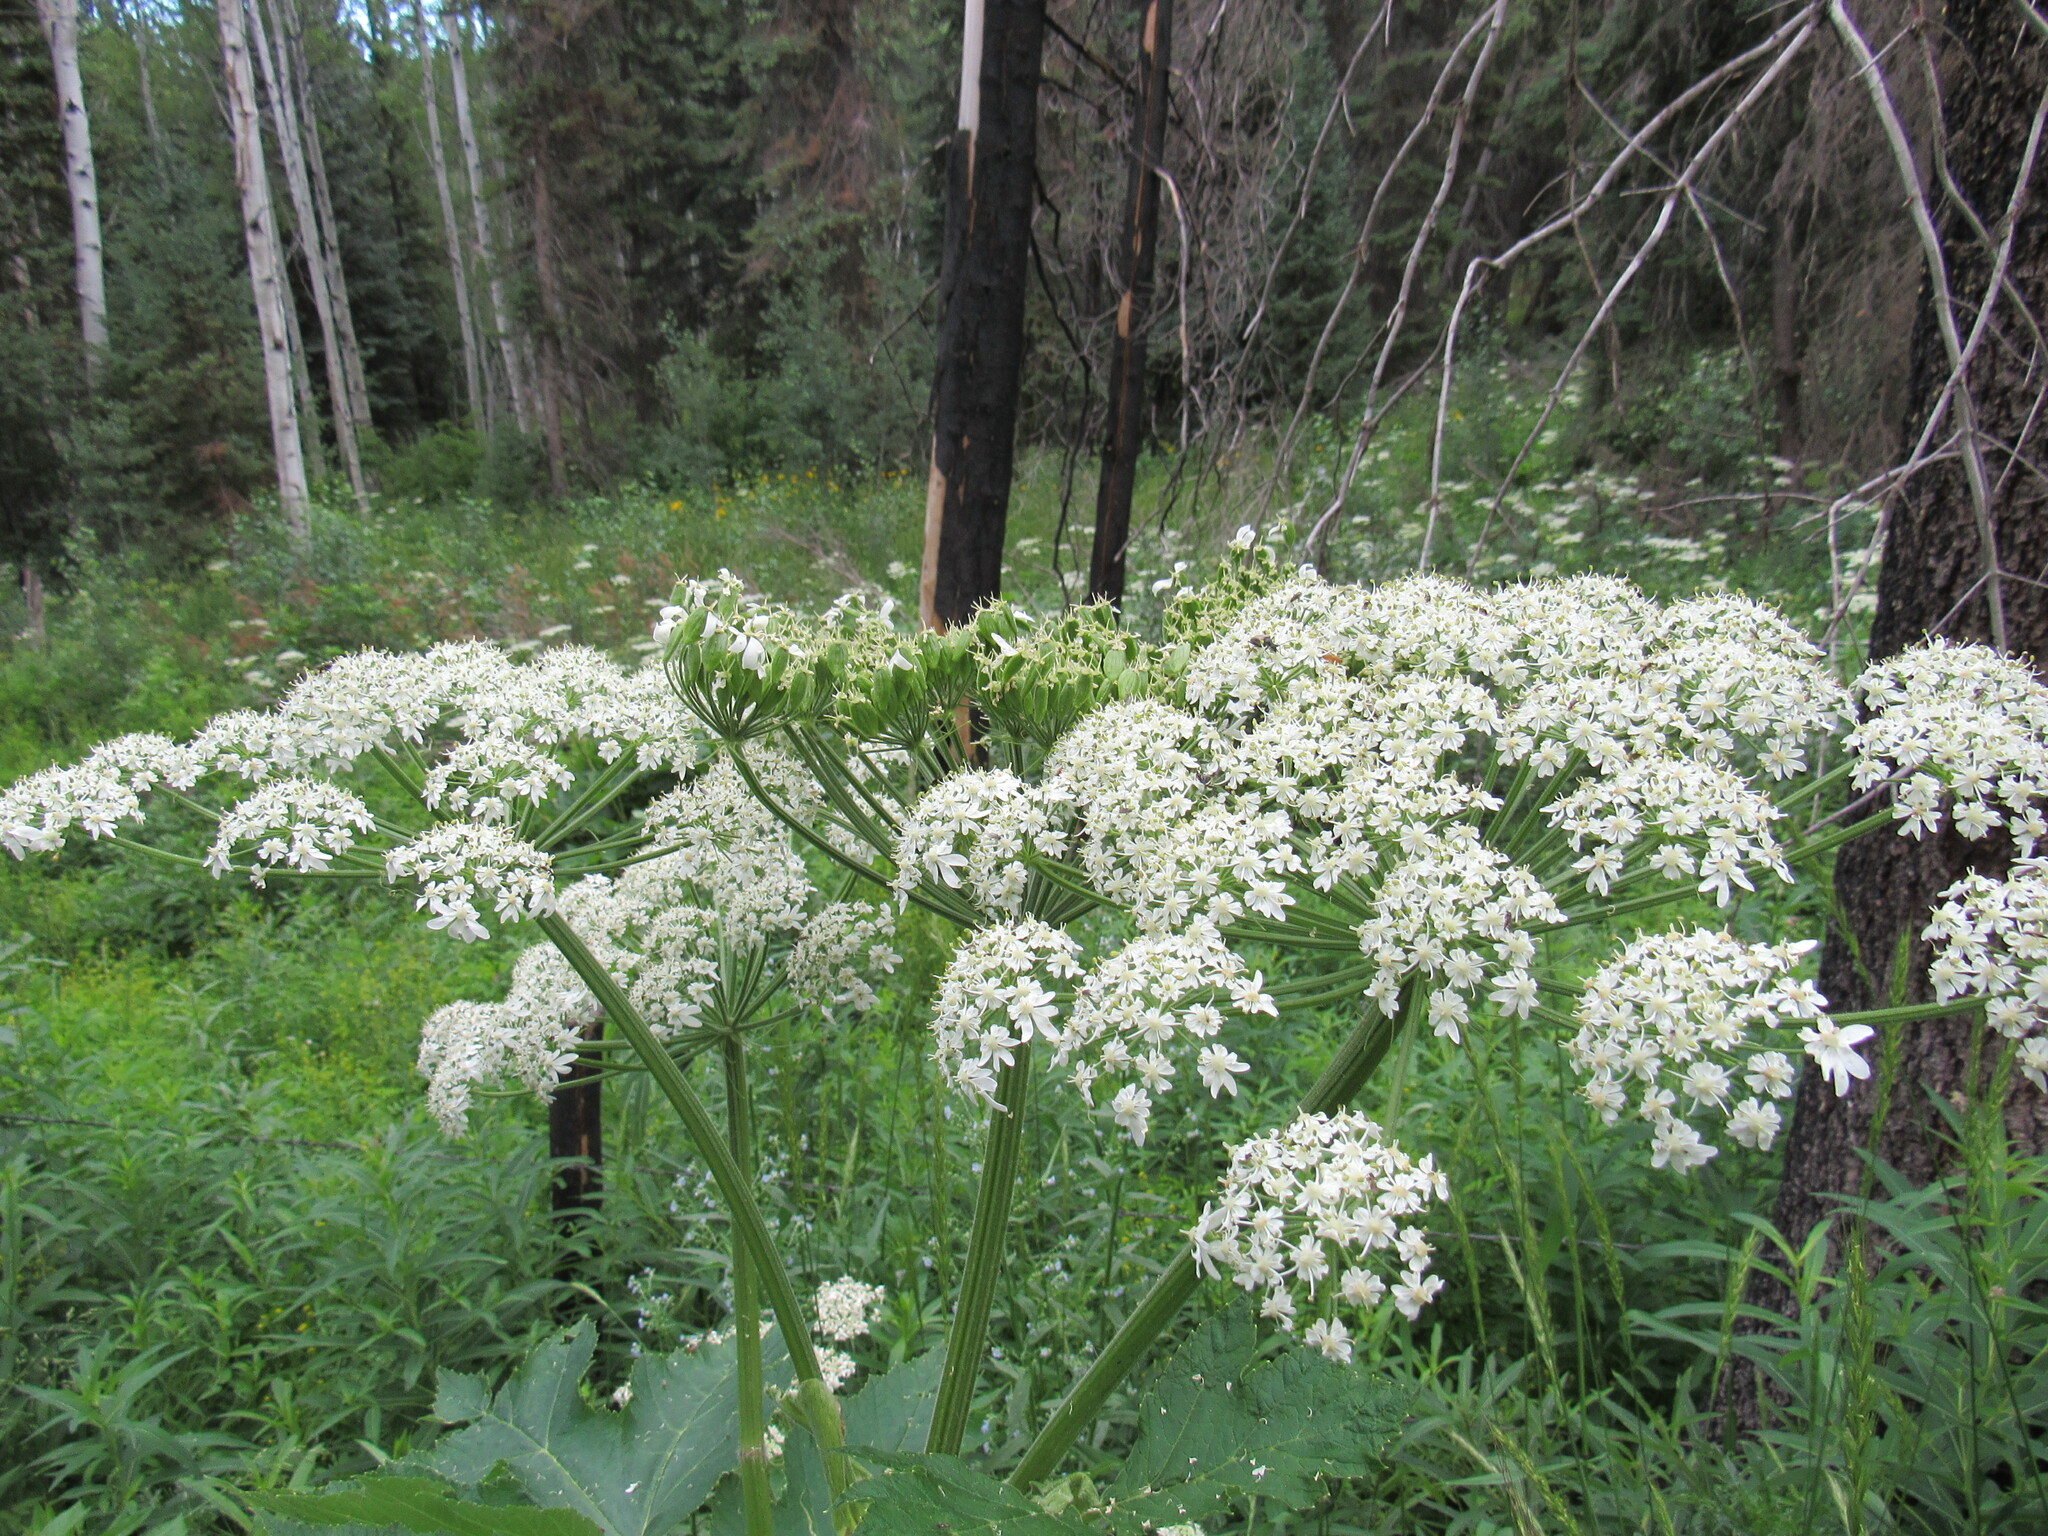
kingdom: Plantae
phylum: Tracheophyta
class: Magnoliopsida
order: Apiales
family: Apiaceae
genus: Heracleum
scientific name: Heracleum maximum
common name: American cow parsnip
